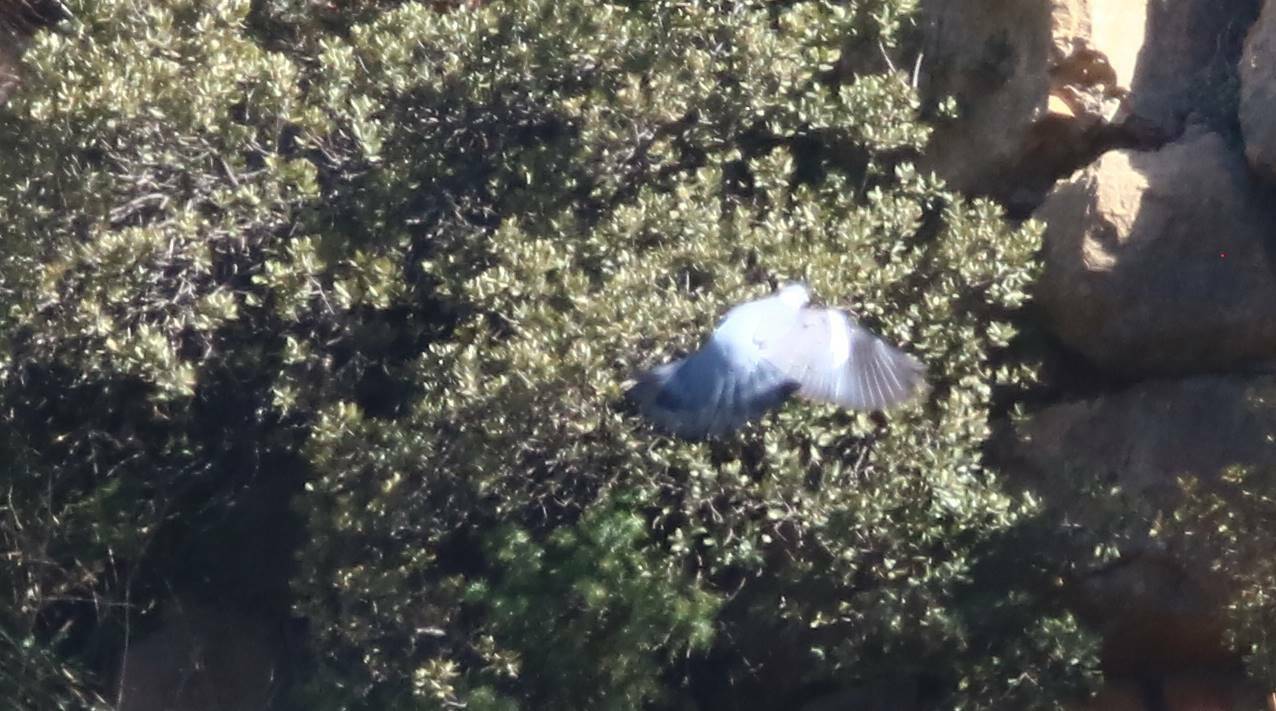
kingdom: Animalia
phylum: Chordata
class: Aves
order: Columbiformes
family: Columbidae
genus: Columba
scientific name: Columba palumbus
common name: Common wood pigeon
